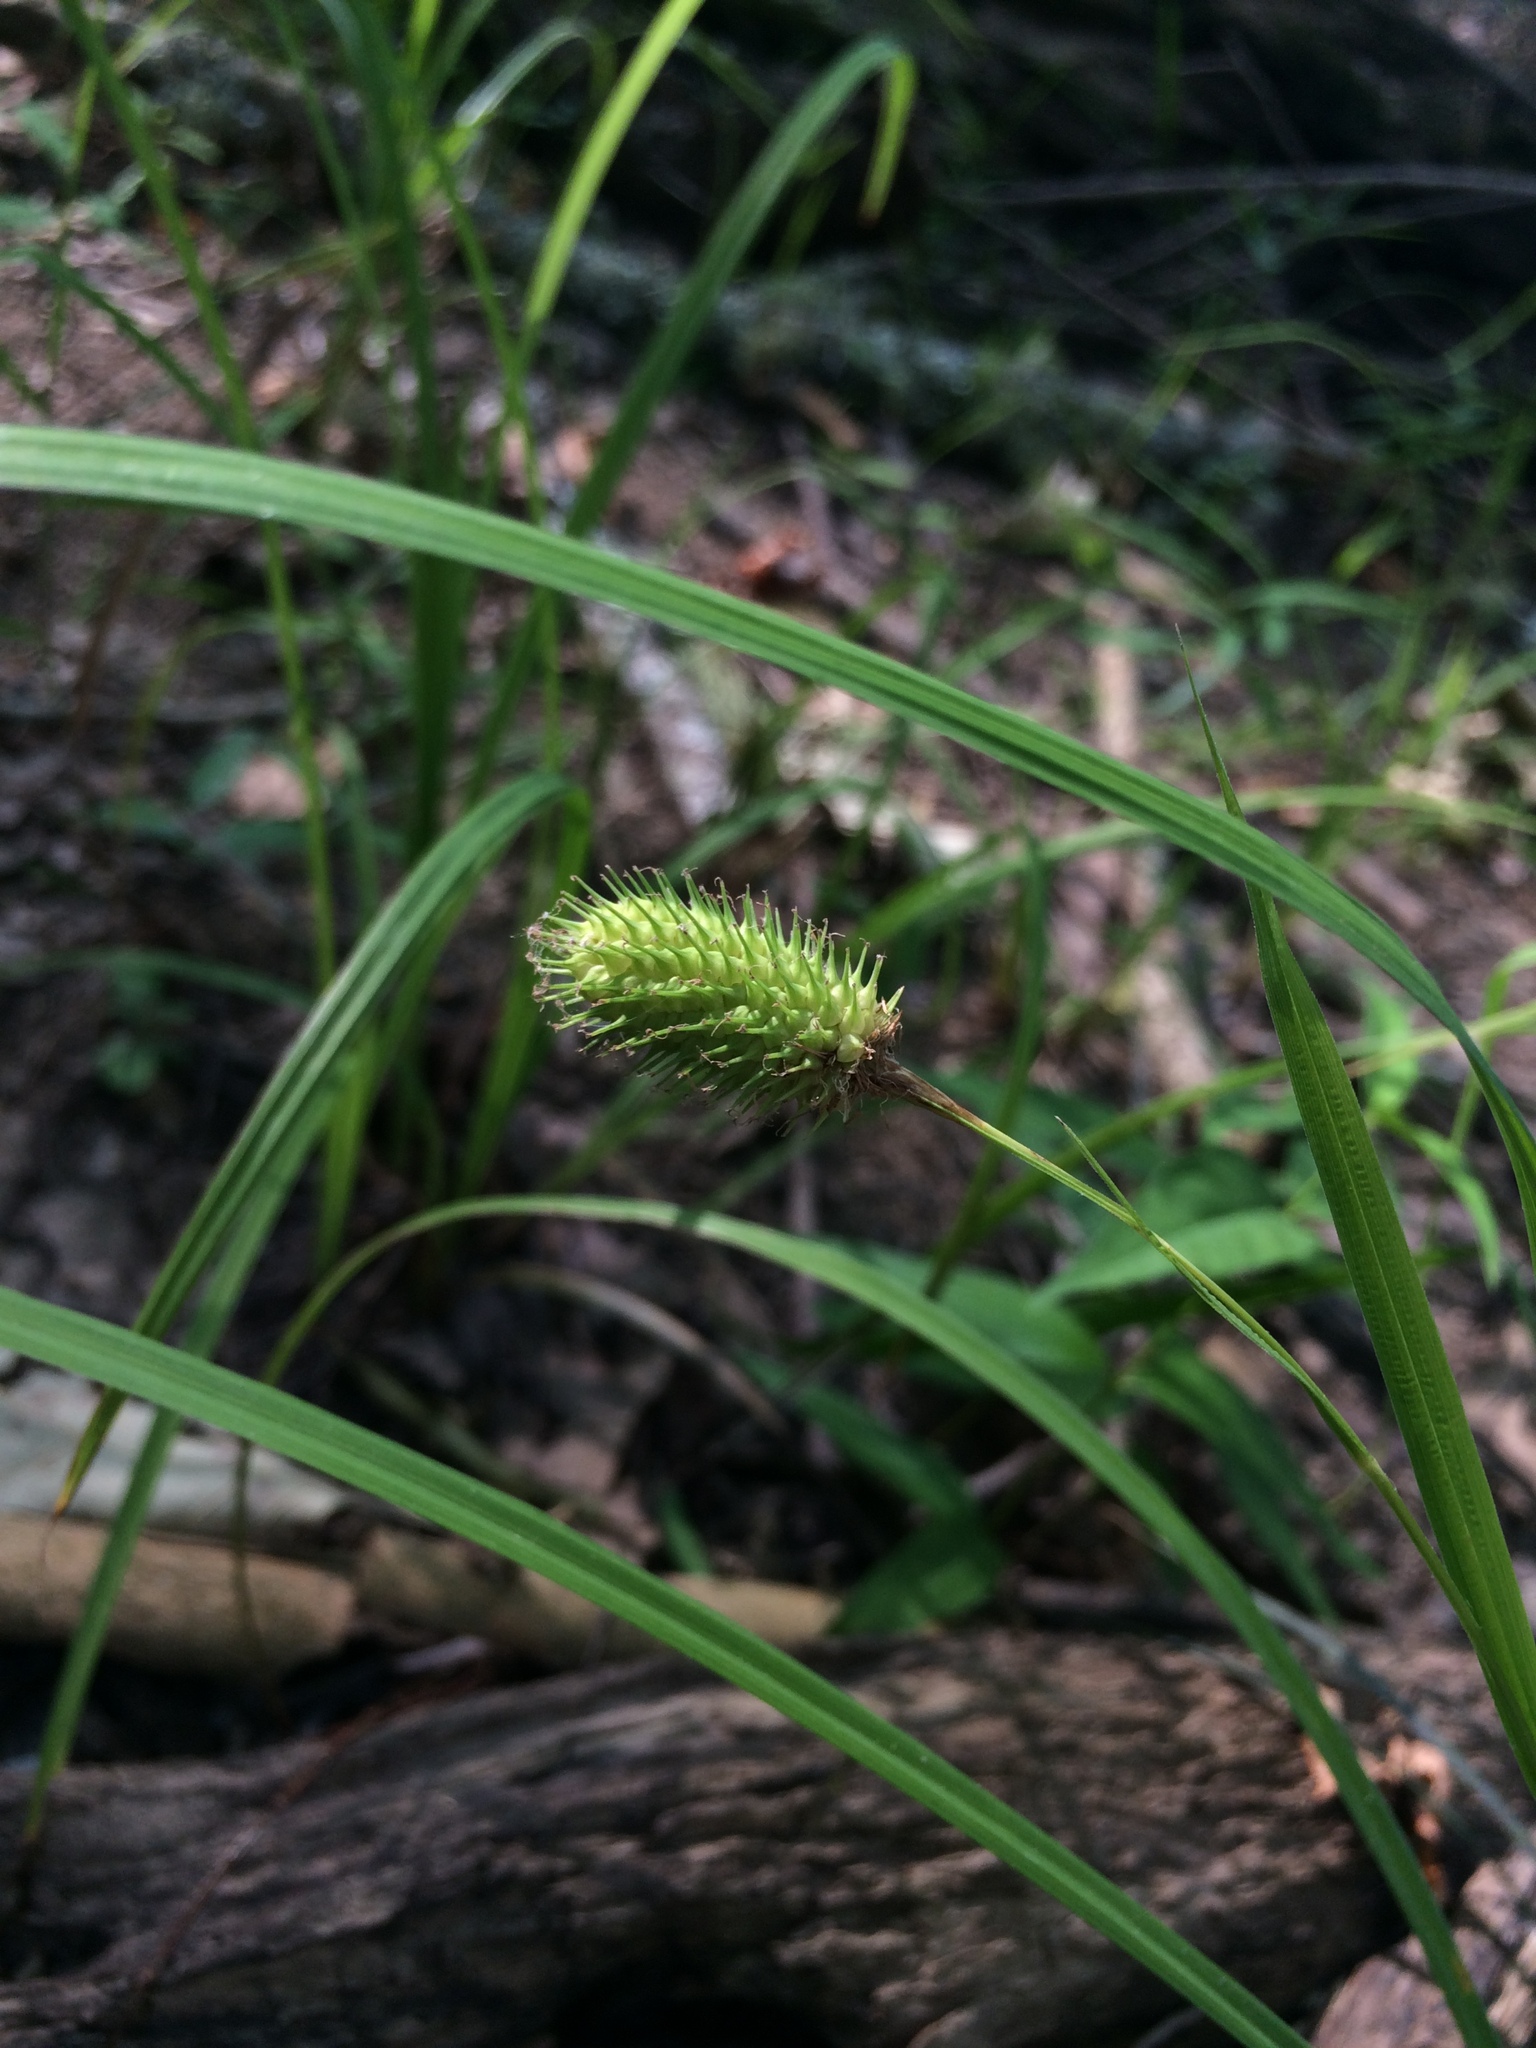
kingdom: Plantae
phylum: Tracheophyta
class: Liliopsida
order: Poales
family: Cyperaceae
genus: Carex
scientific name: Carex typhina
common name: Cattail sedge
